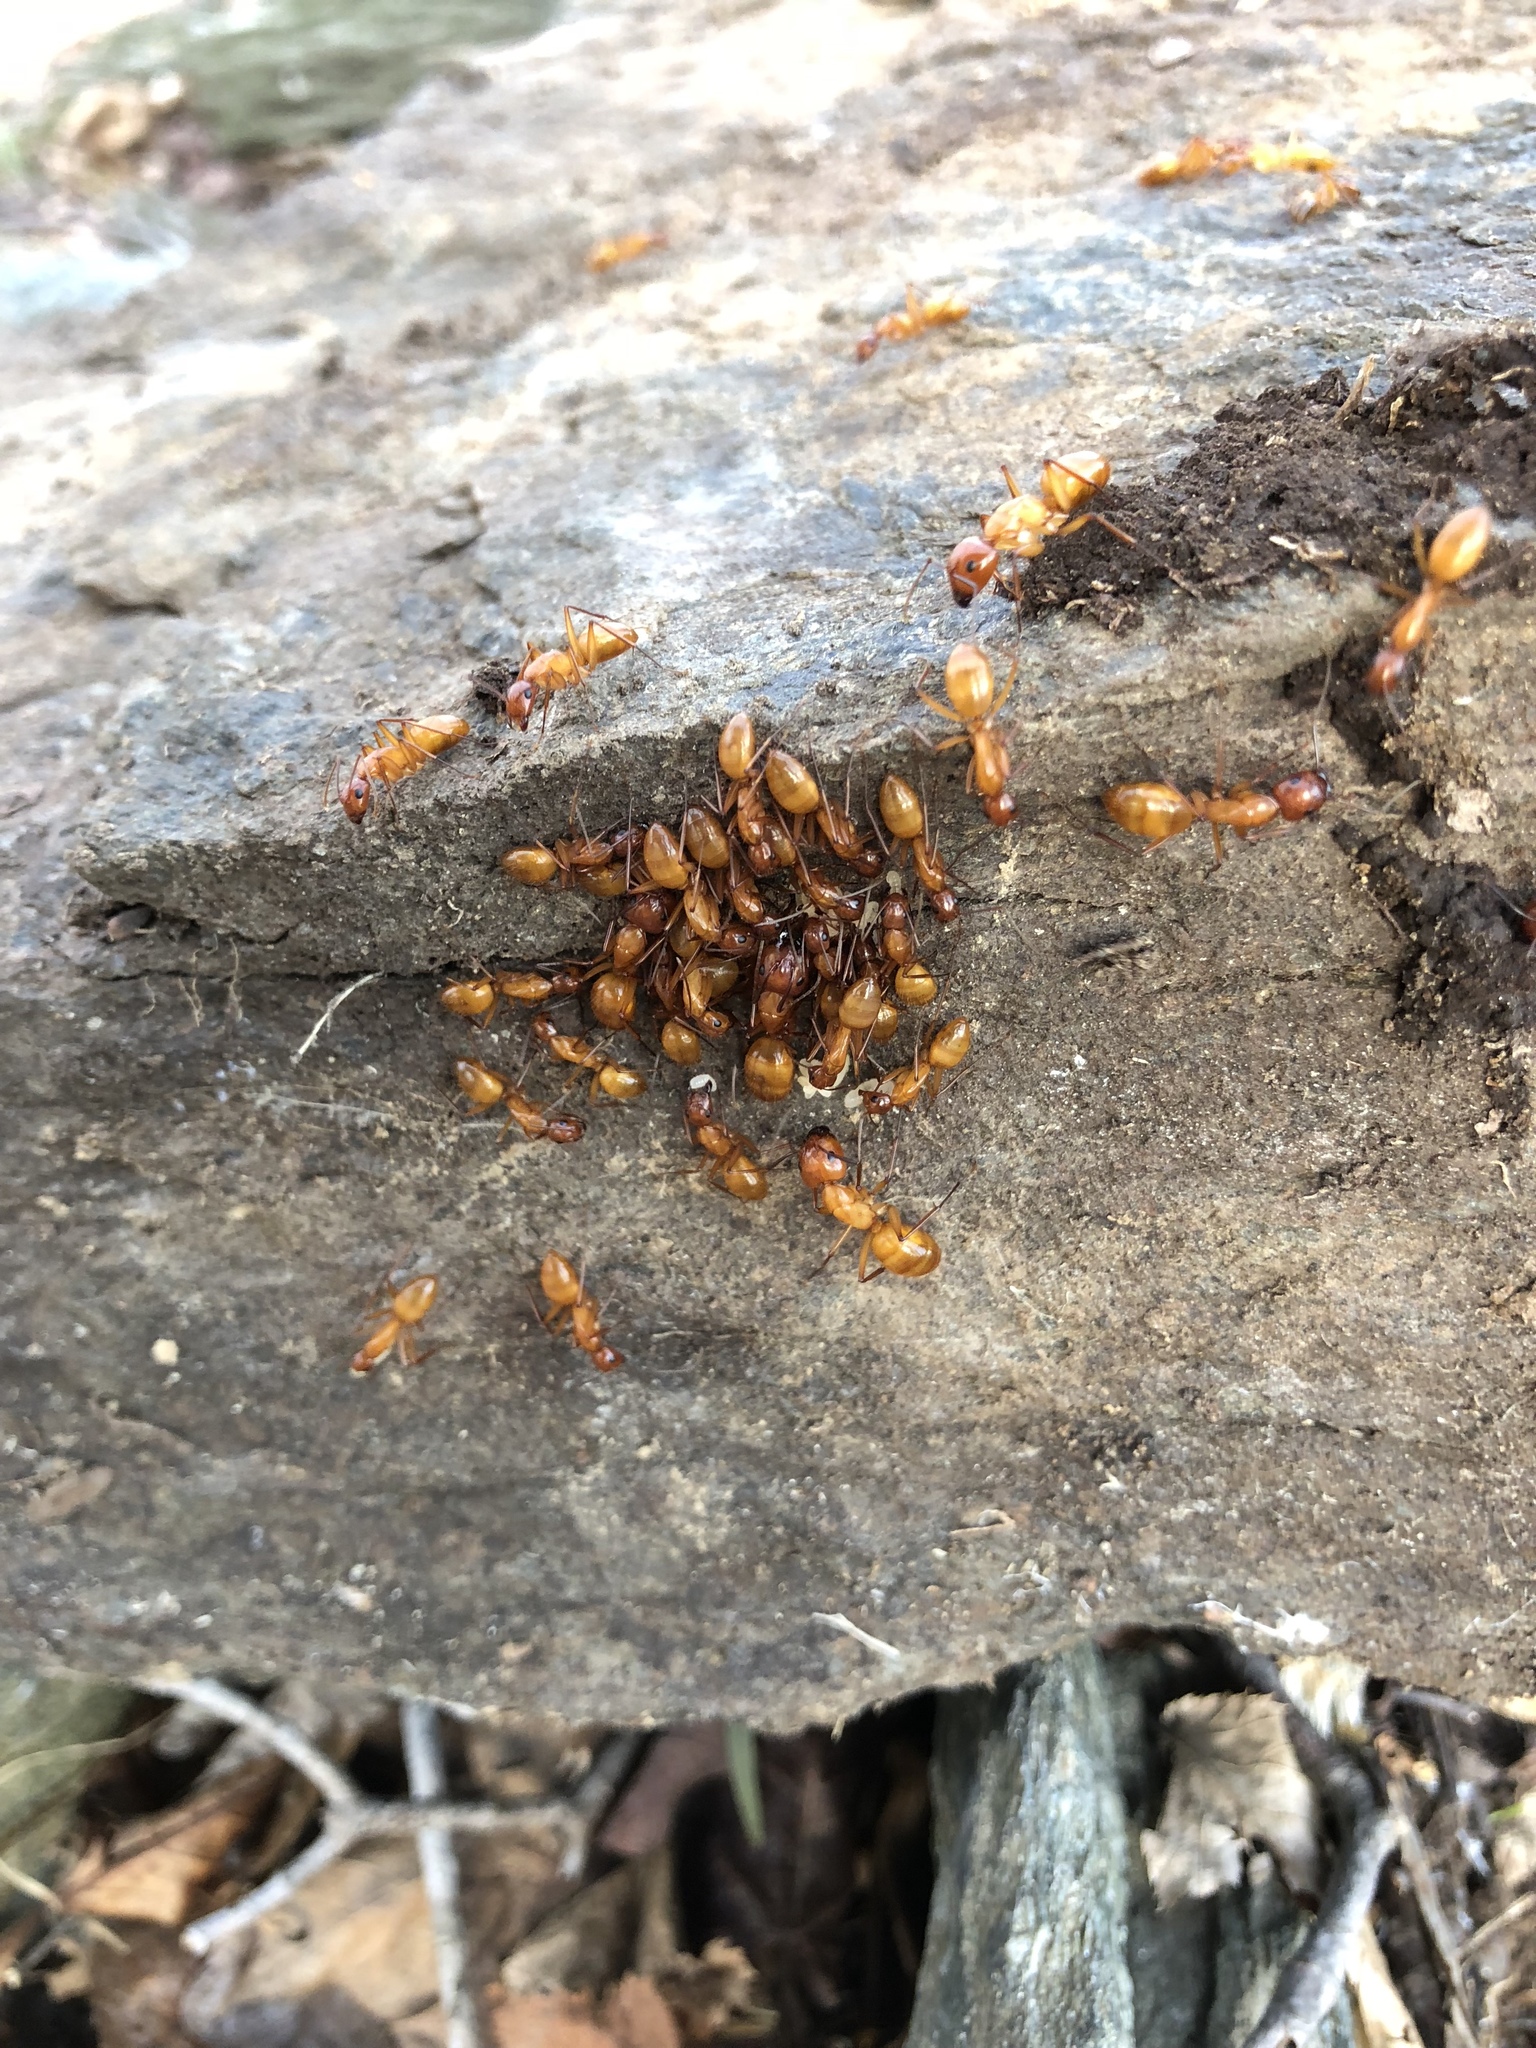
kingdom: Animalia
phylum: Arthropoda
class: Insecta
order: Hymenoptera
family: Formicidae
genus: Camponotus
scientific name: Camponotus castaneus
